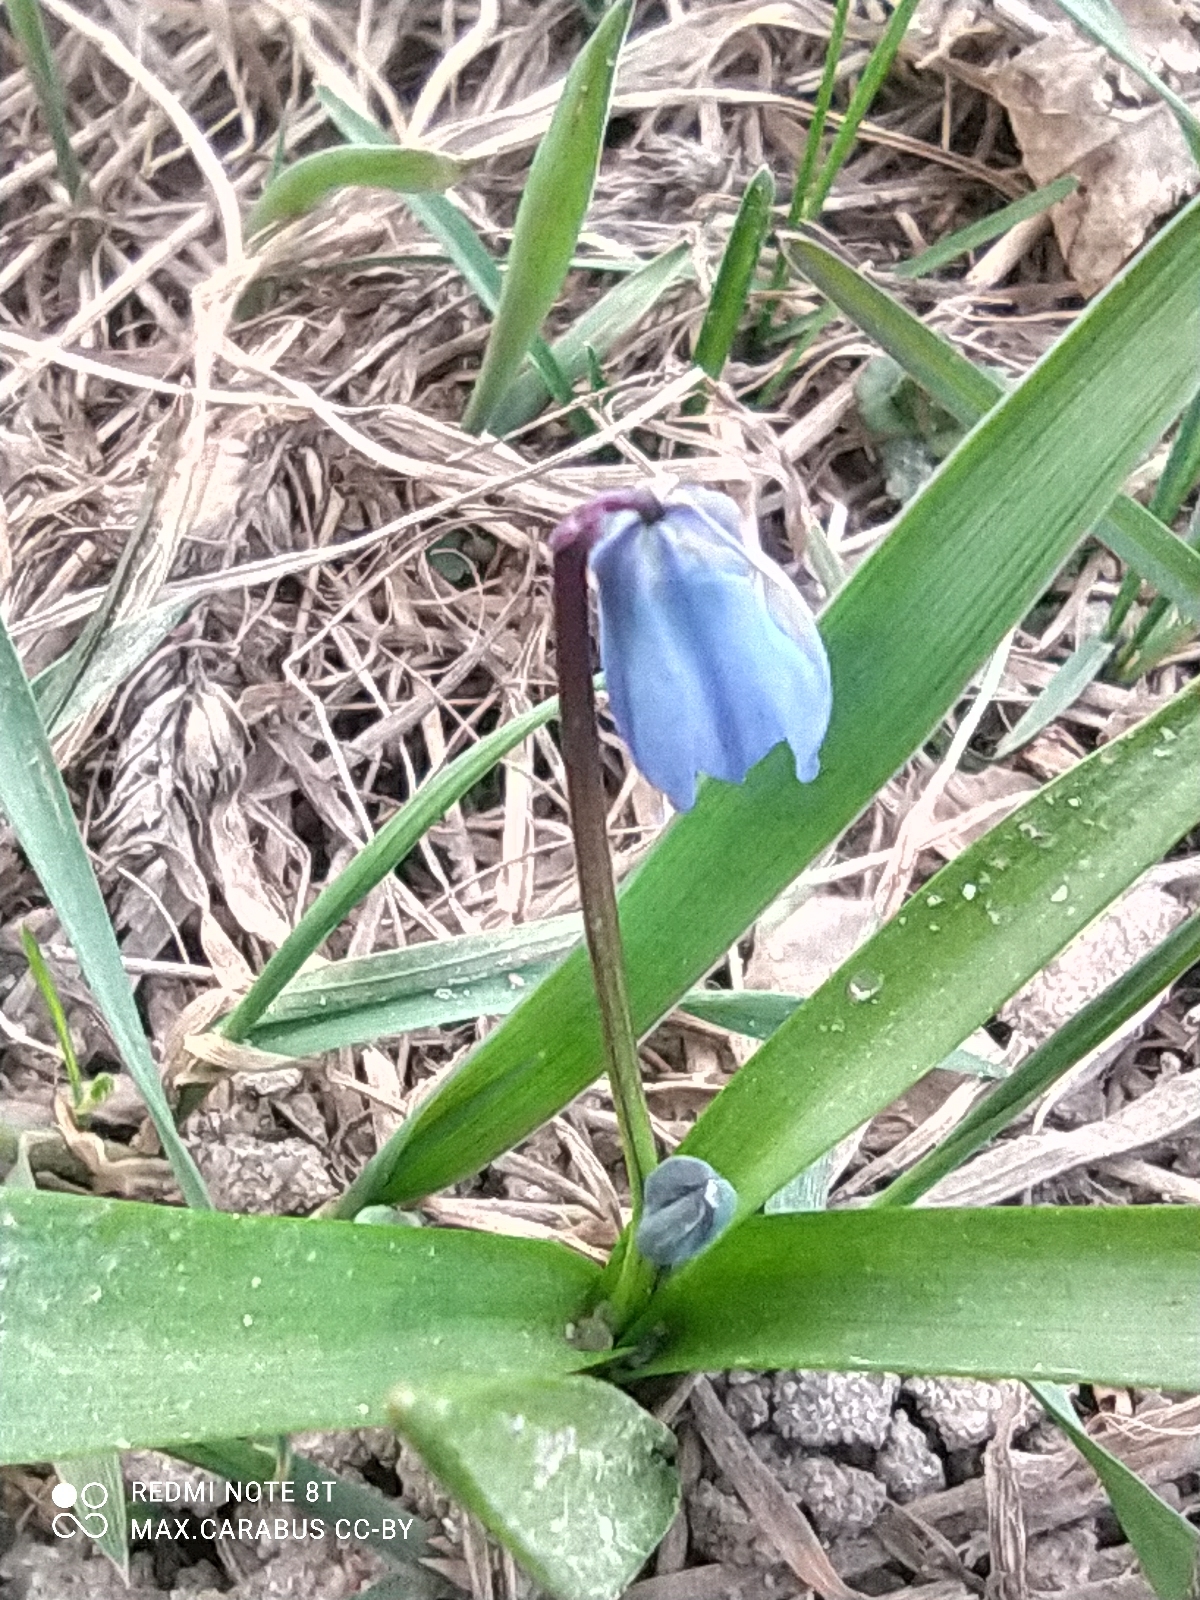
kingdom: Plantae
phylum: Tracheophyta
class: Liliopsida
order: Asparagales
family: Asparagaceae
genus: Scilla
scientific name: Scilla siberica
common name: Siberian squill
